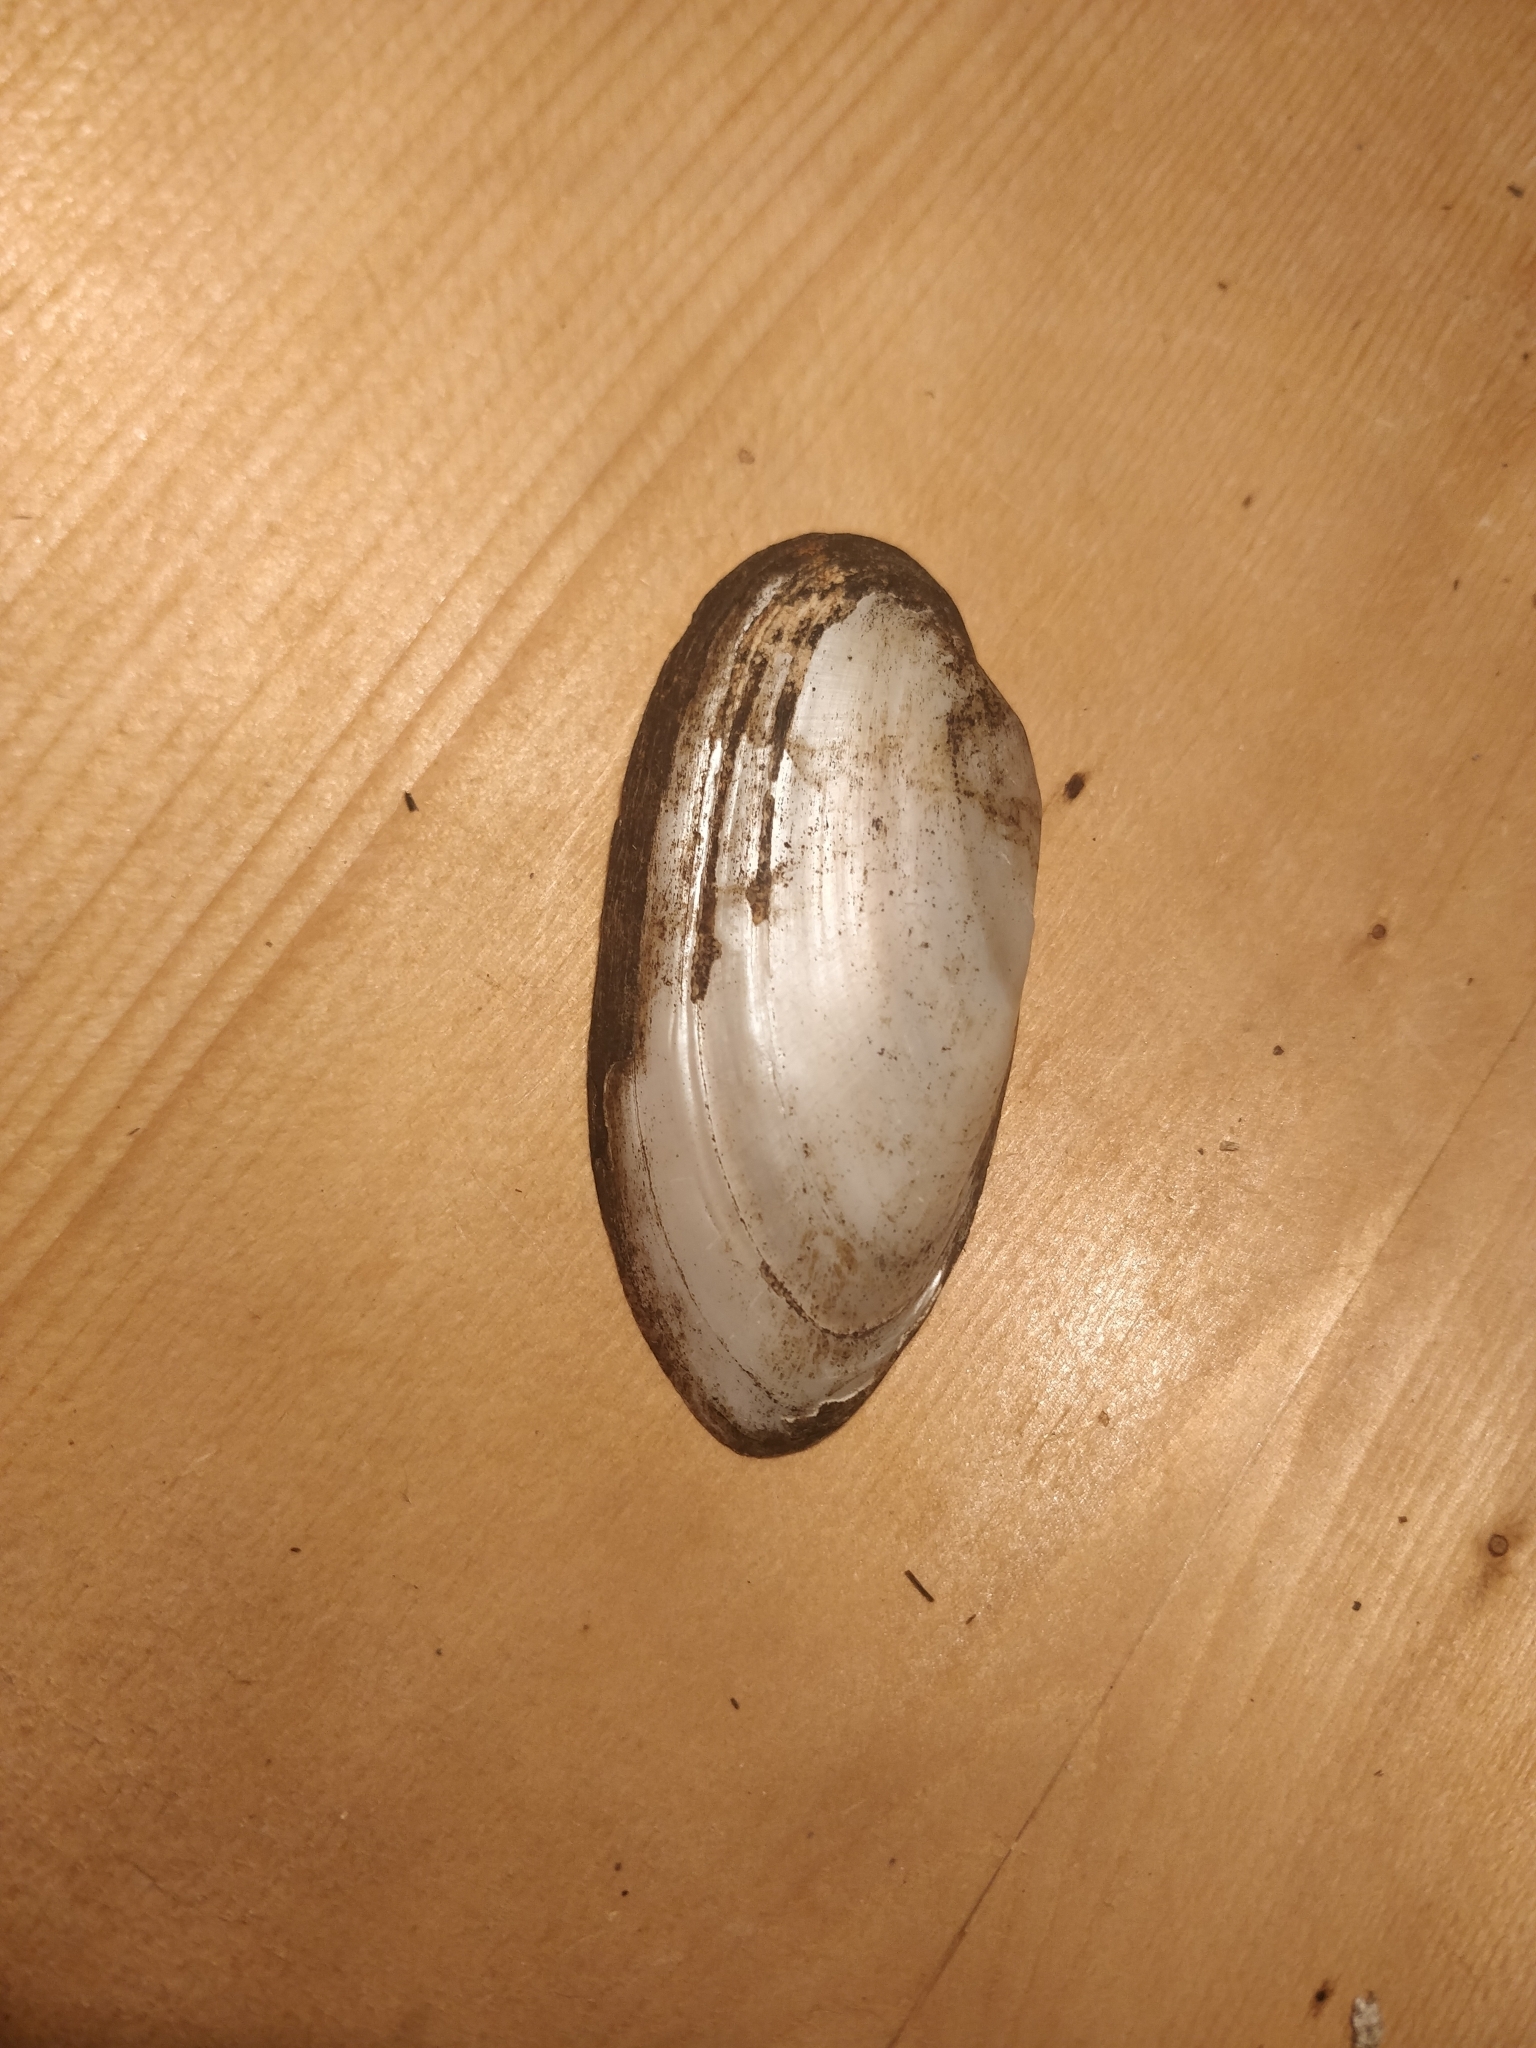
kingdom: Animalia
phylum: Mollusca
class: Bivalvia
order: Unionida
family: Unionidae
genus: Lampsilis
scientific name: Lampsilis teres
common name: Yellow sandshell
